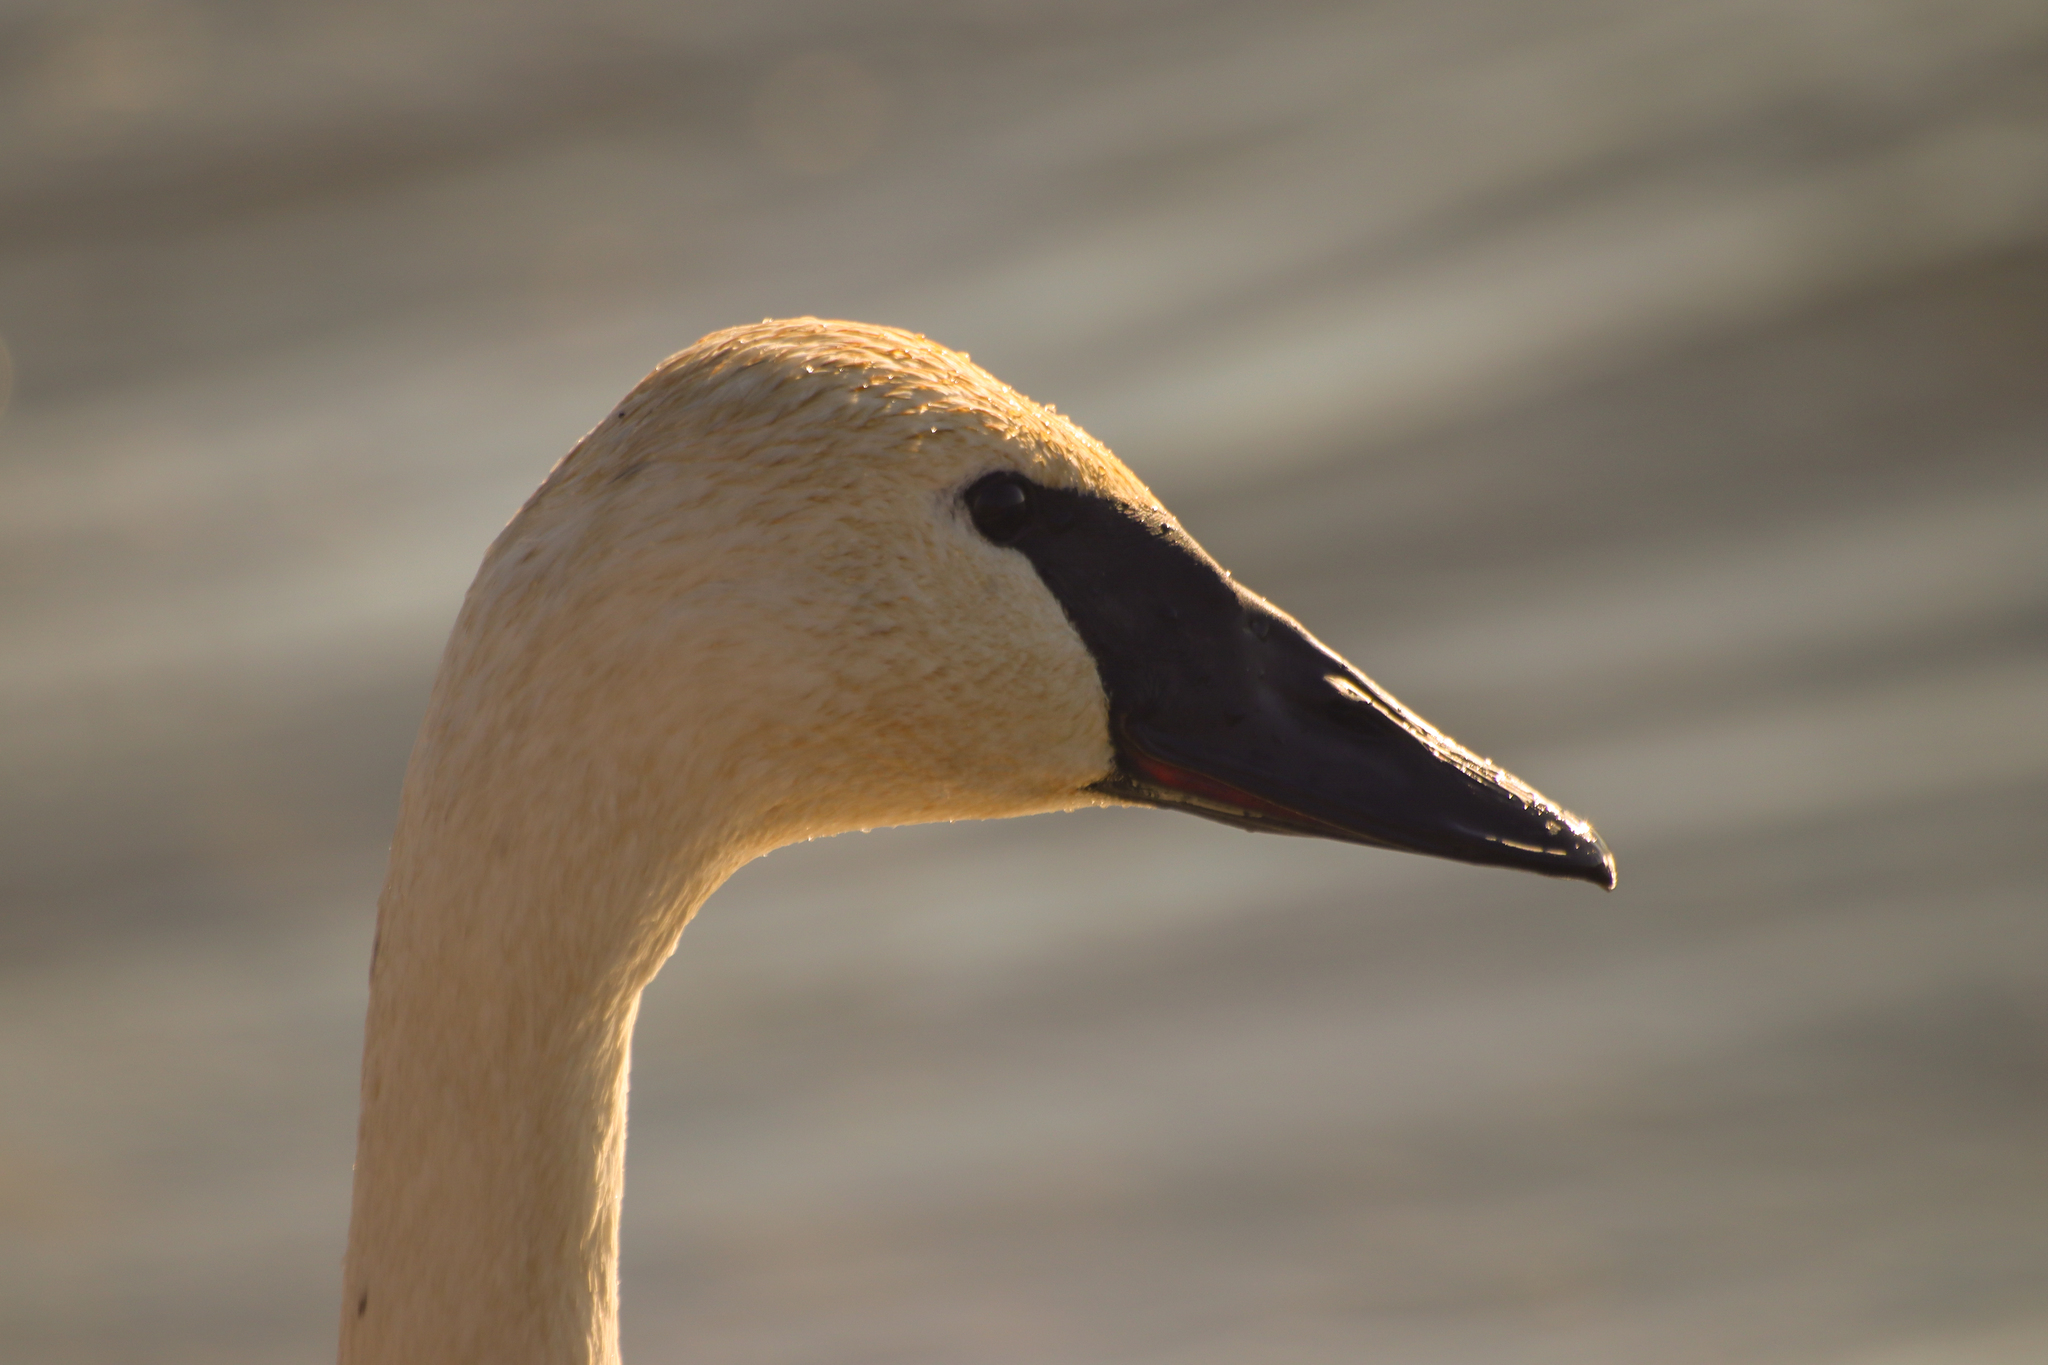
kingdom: Animalia
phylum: Chordata
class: Aves
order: Anseriformes
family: Anatidae
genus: Cygnus
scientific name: Cygnus buccinator
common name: Trumpeter swan
